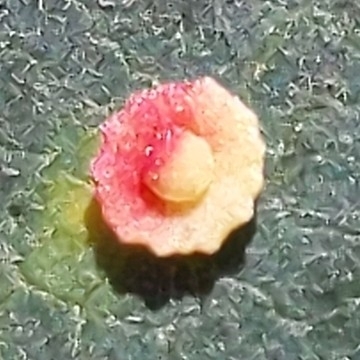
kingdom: Animalia
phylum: Arthropoda
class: Insecta
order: Hymenoptera
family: Cynipidae
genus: Andricus
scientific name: Andricus
